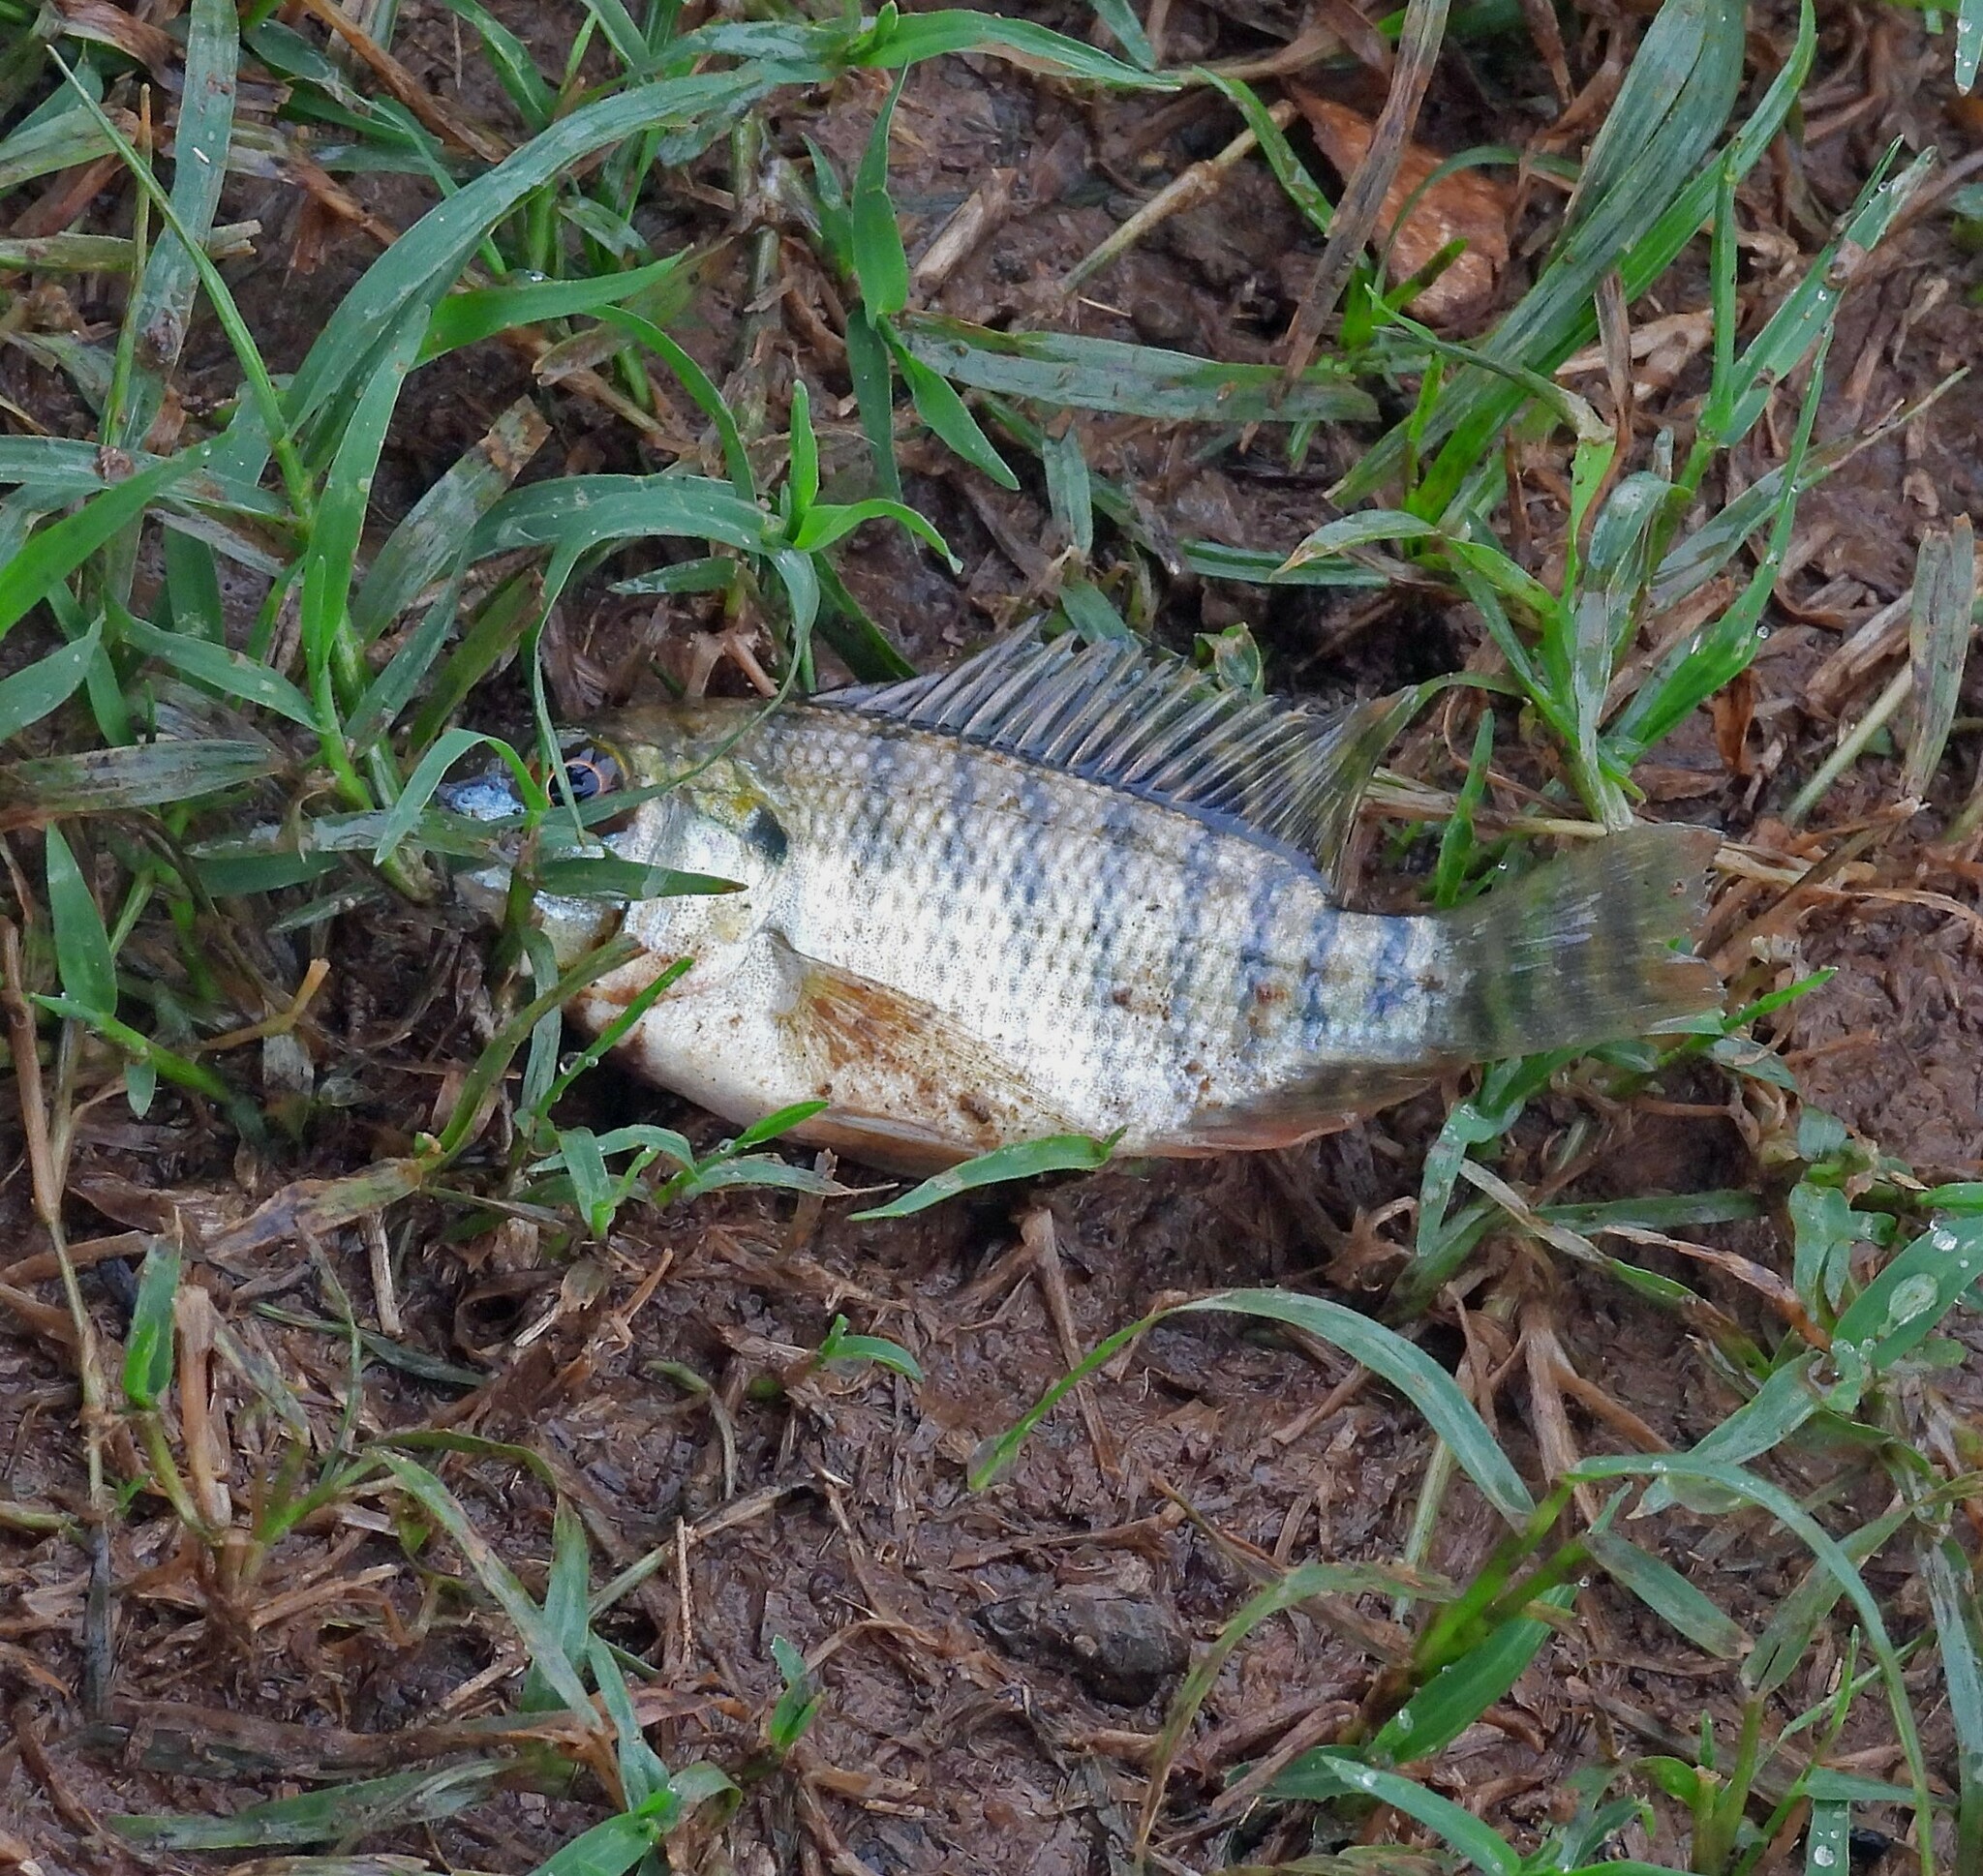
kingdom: Animalia
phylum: Chordata
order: Perciformes
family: Cichlidae
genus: Oreochromis
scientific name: Oreochromis niloticus
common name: Nile tilapia
